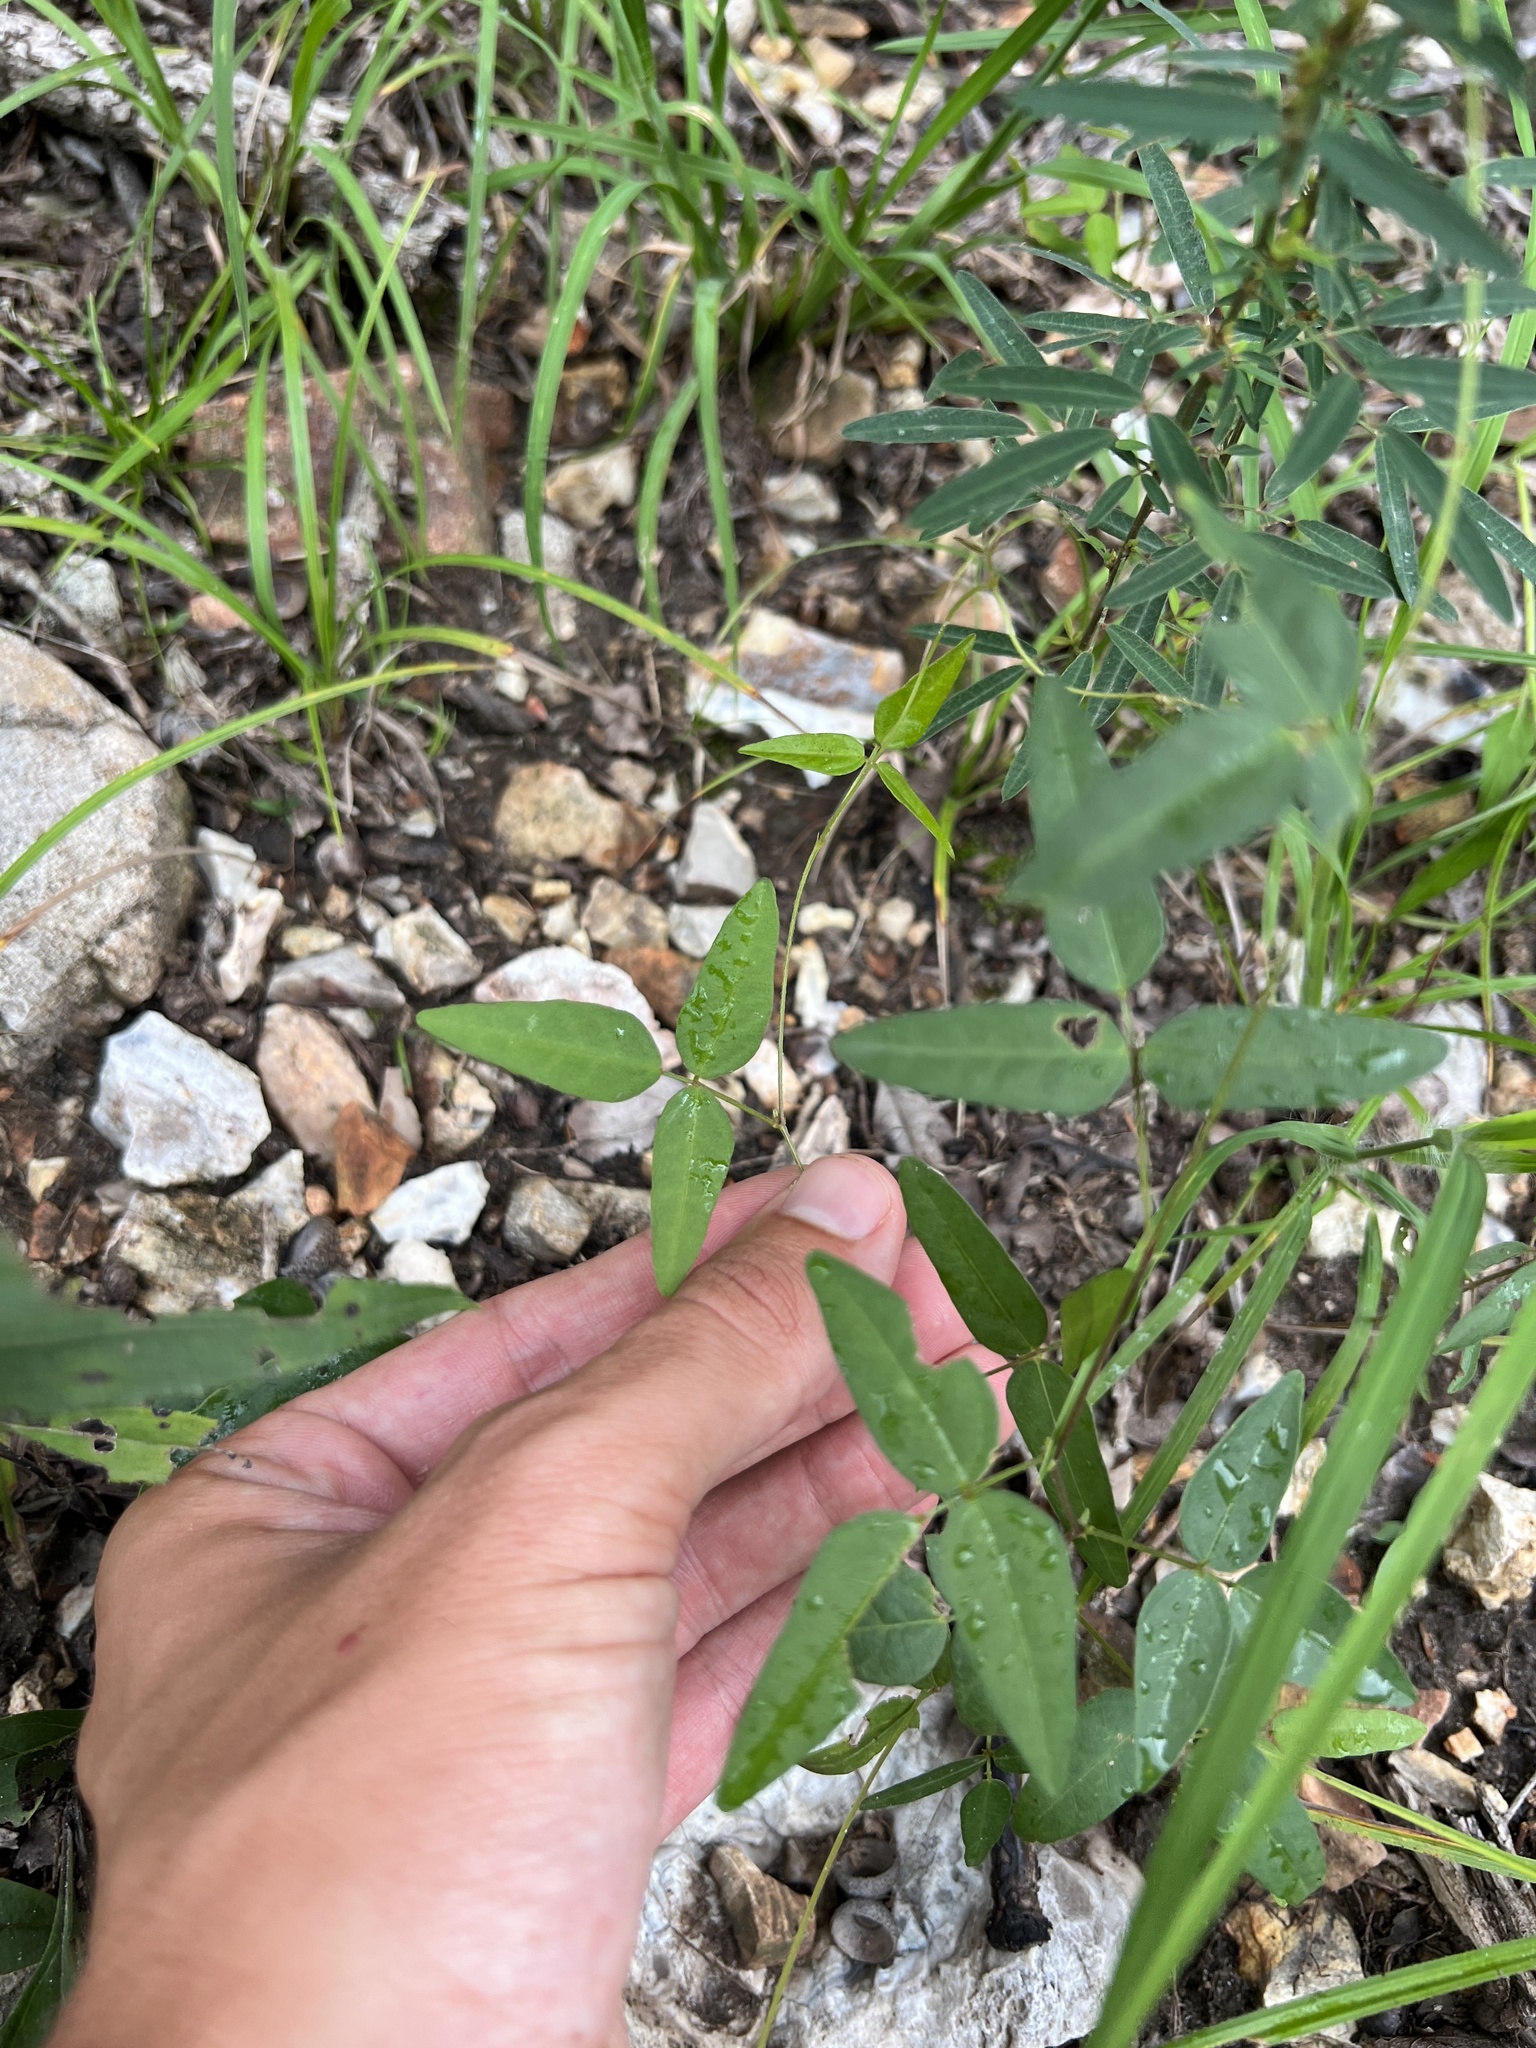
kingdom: Plantae
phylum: Tracheophyta
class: Magnoliopsida
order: Fabales
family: Fabaceae
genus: Strophostyles
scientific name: Strophostyles leiosperma
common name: Smooth-seed wild bean
